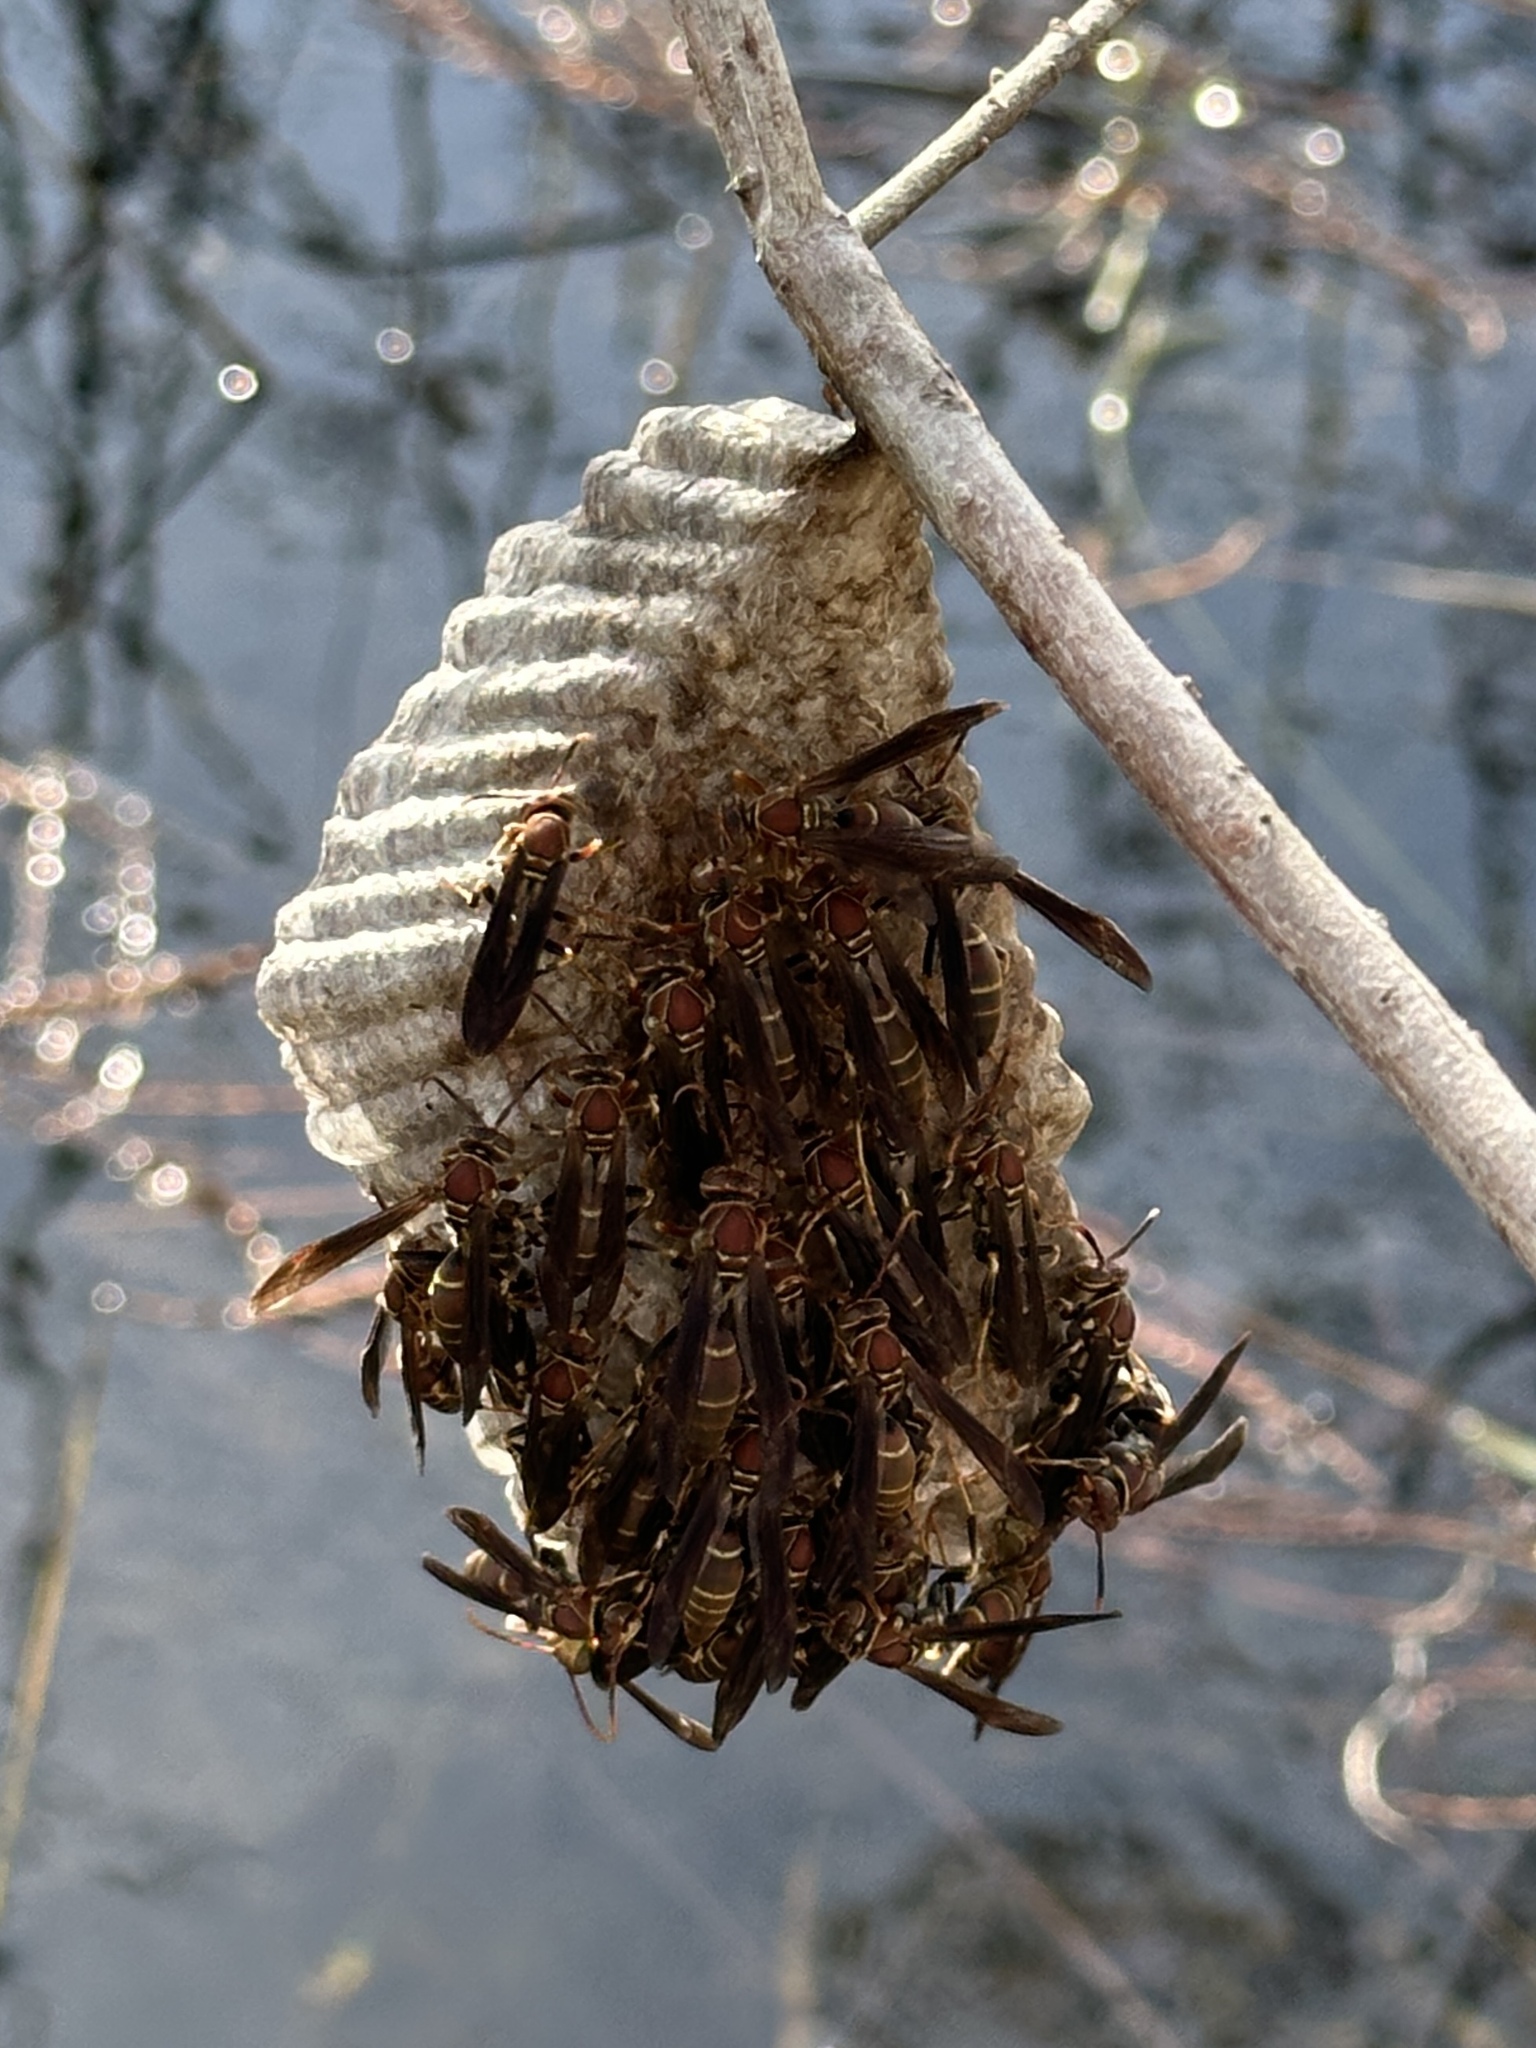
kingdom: Animalia
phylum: Arthropoda
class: Insecta
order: Hymenoptera
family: Eumenidae
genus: Polistes
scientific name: Polistes bahamensis
